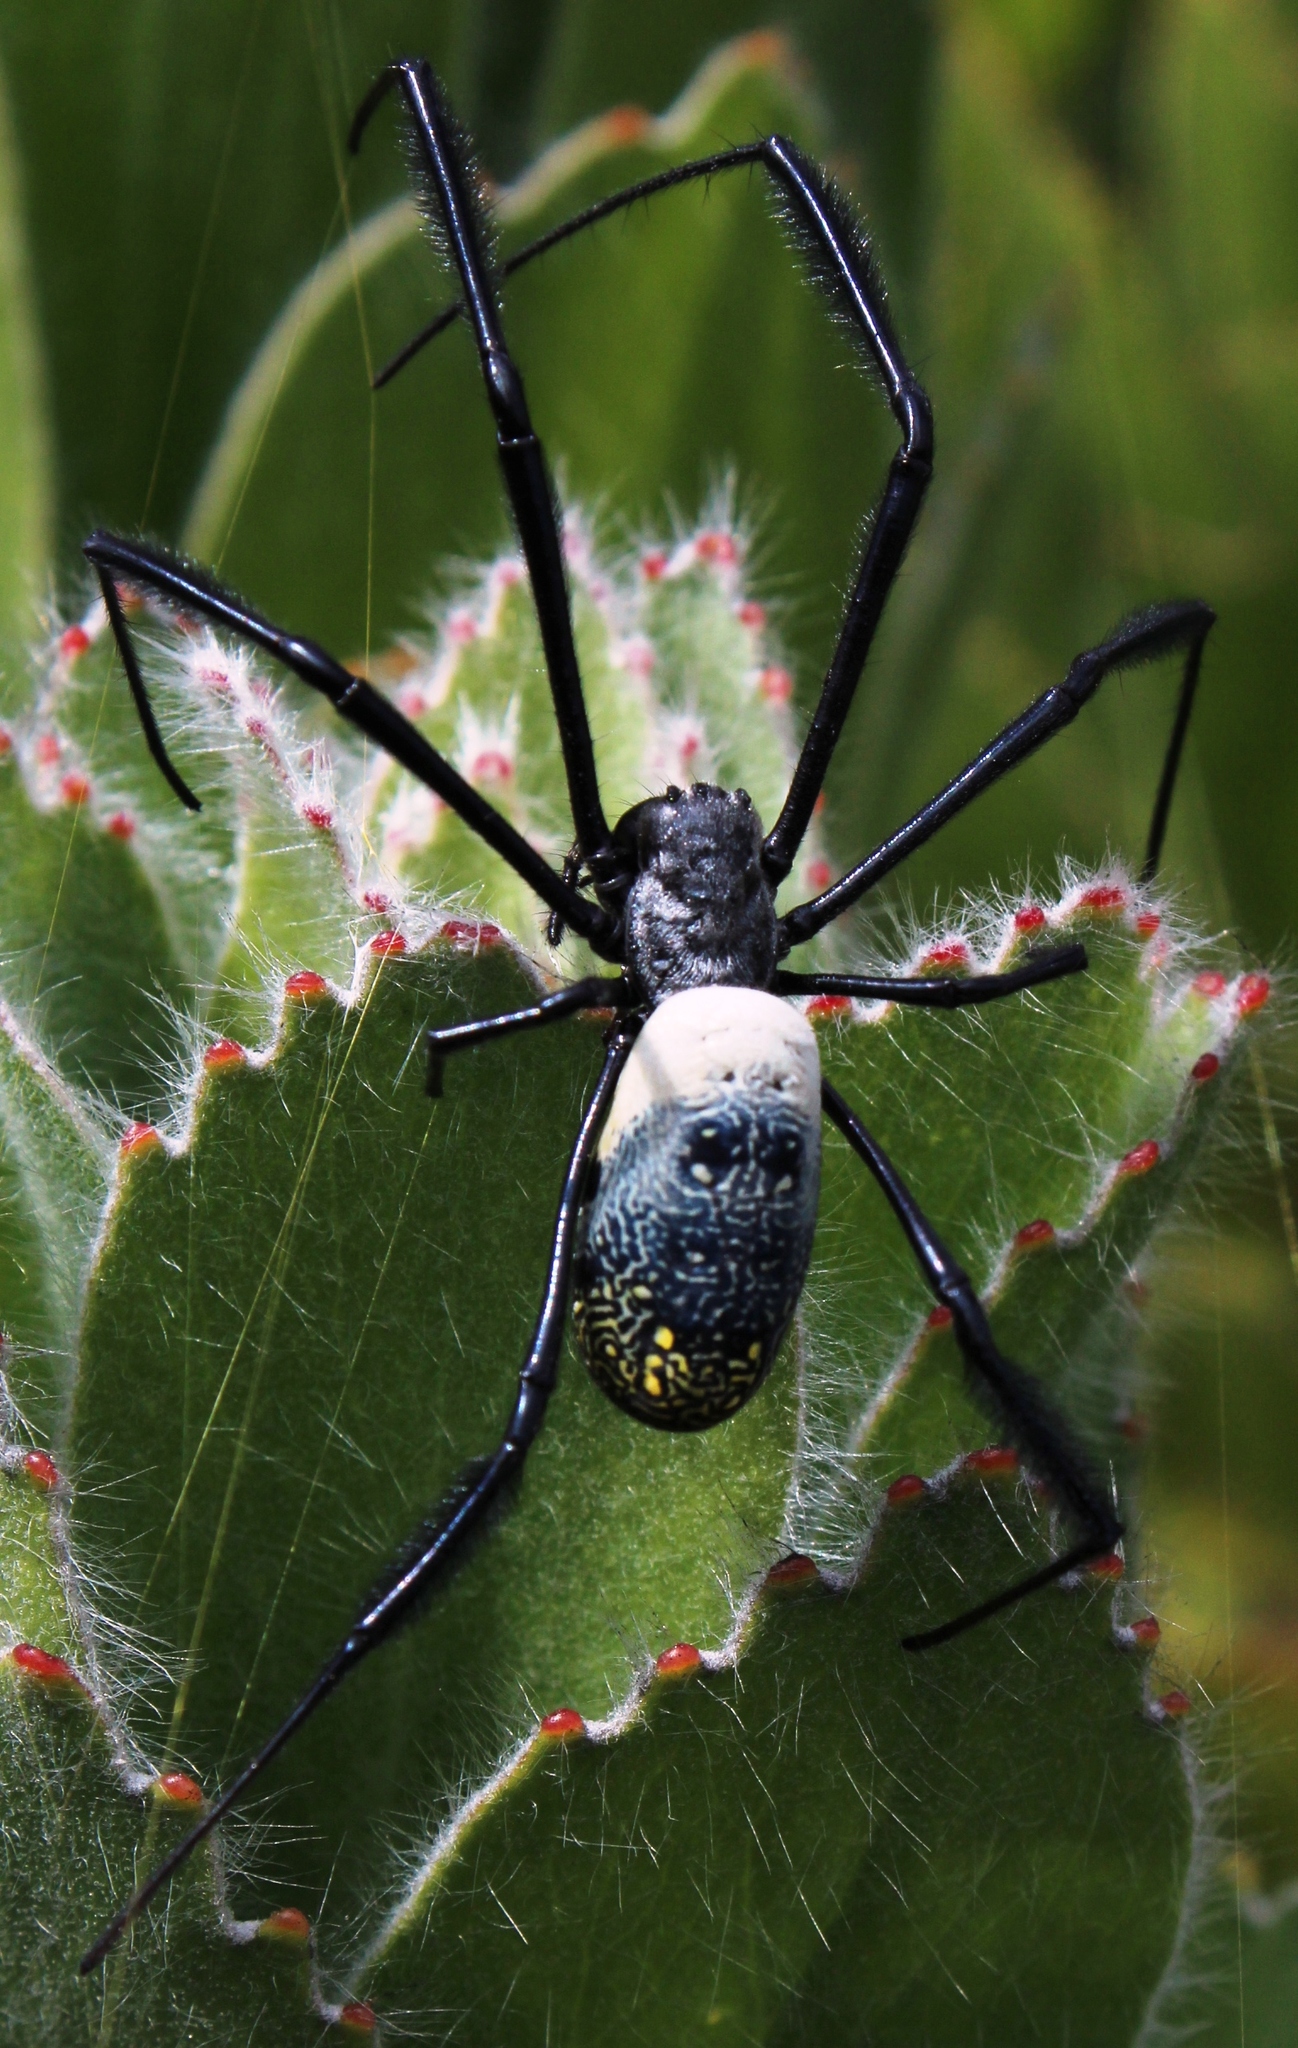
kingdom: Animalia
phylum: Arthropoda
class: Arachnida
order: Araneae
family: Araneidae
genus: Trichonephila
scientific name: Trichonephila fenestrata
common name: Hairy golden orb weaver
